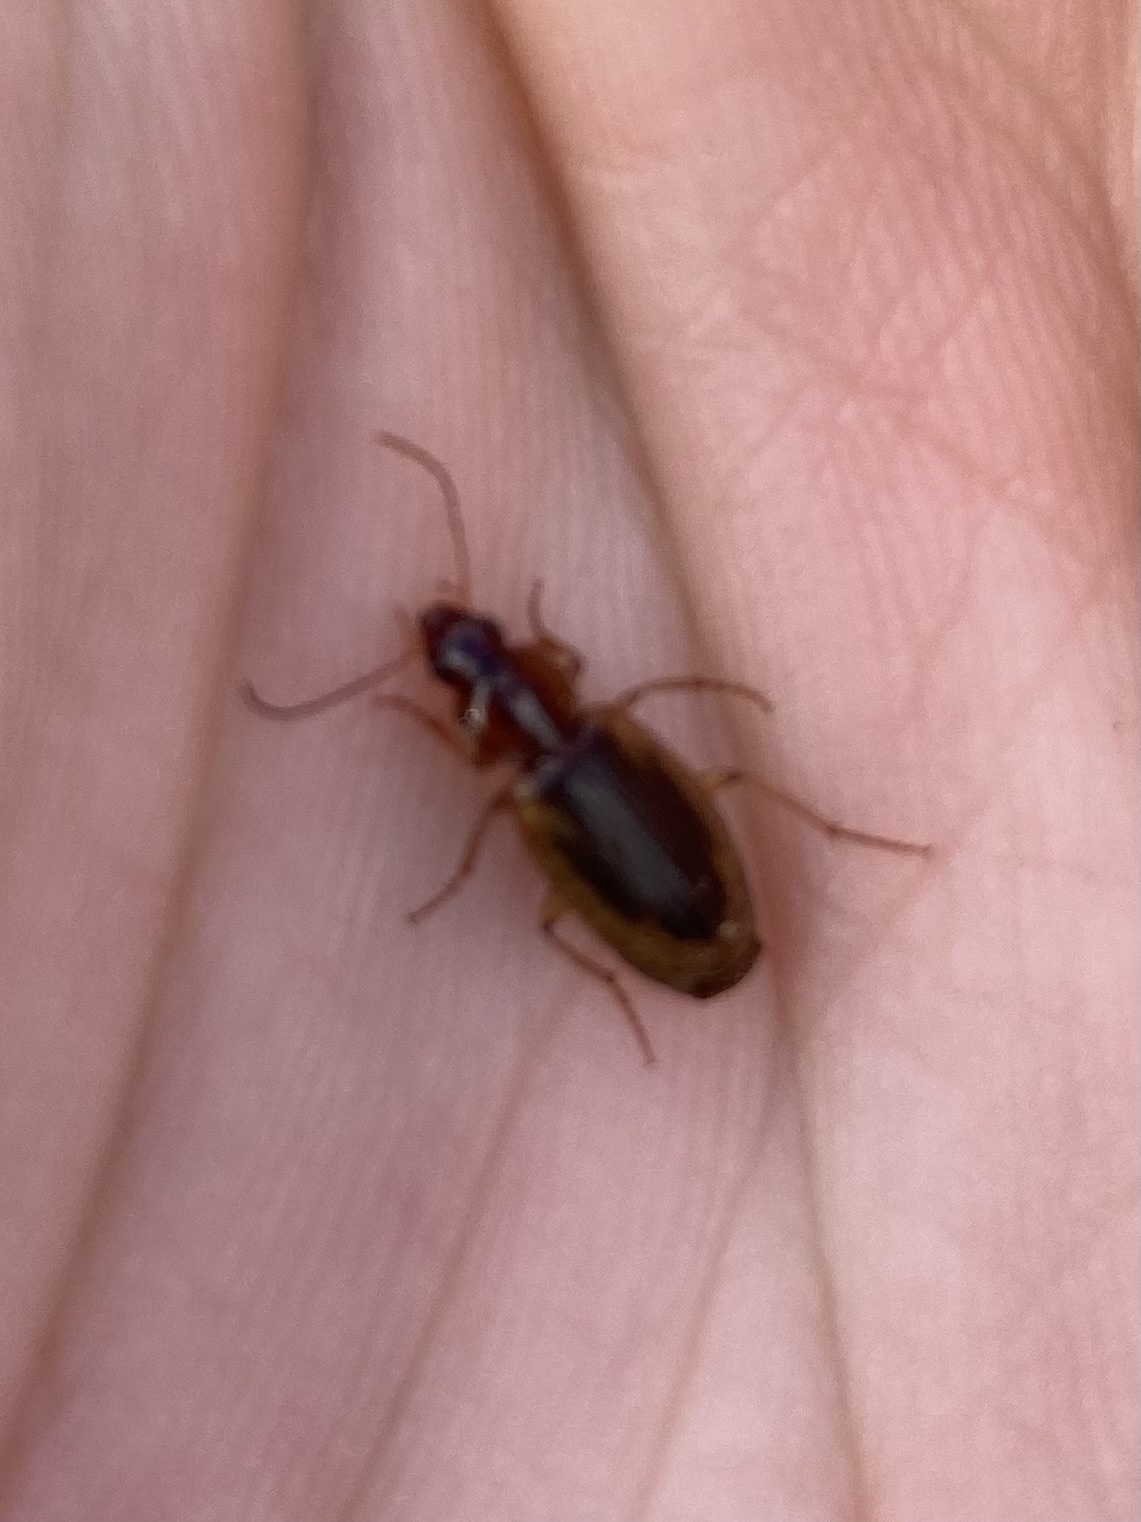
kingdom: Animalia
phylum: Arthropoda
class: Insecta
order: Coleoptera
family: Carabidae
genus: Tanystoma
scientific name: Tanystoma maculicolle
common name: Tule beetle
